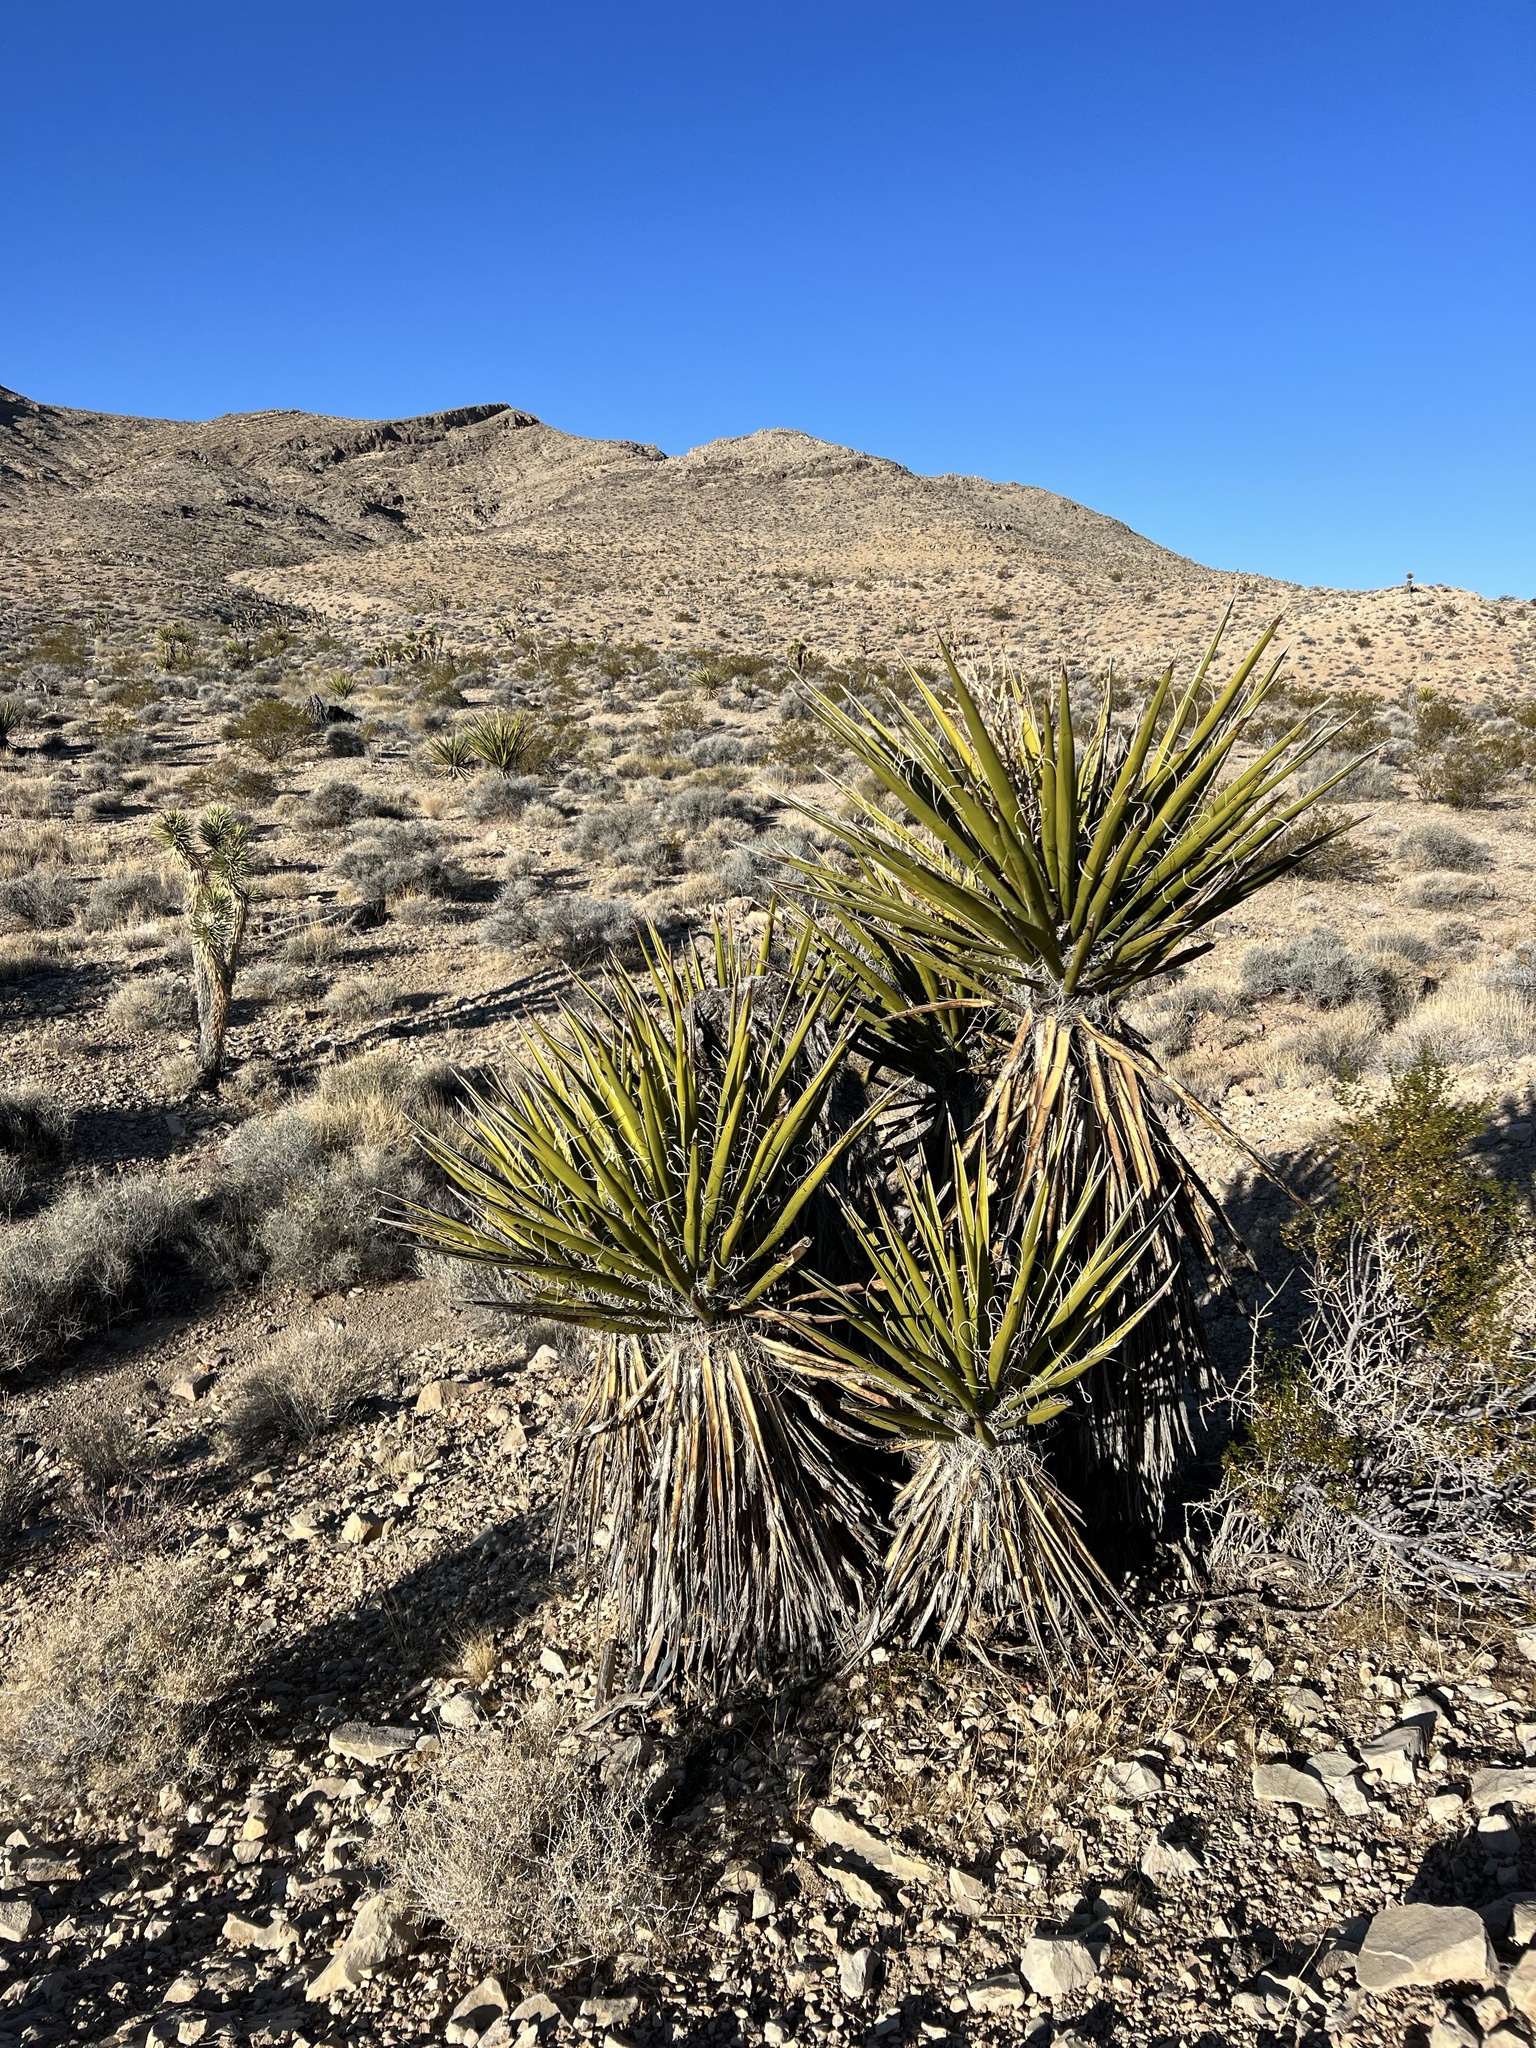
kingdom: Plantae
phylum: Tracheophyta
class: Liliopsida
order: Asparagales
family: Asparagaceae
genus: Yucca
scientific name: Yucca schidigera
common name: Mojave yucca
